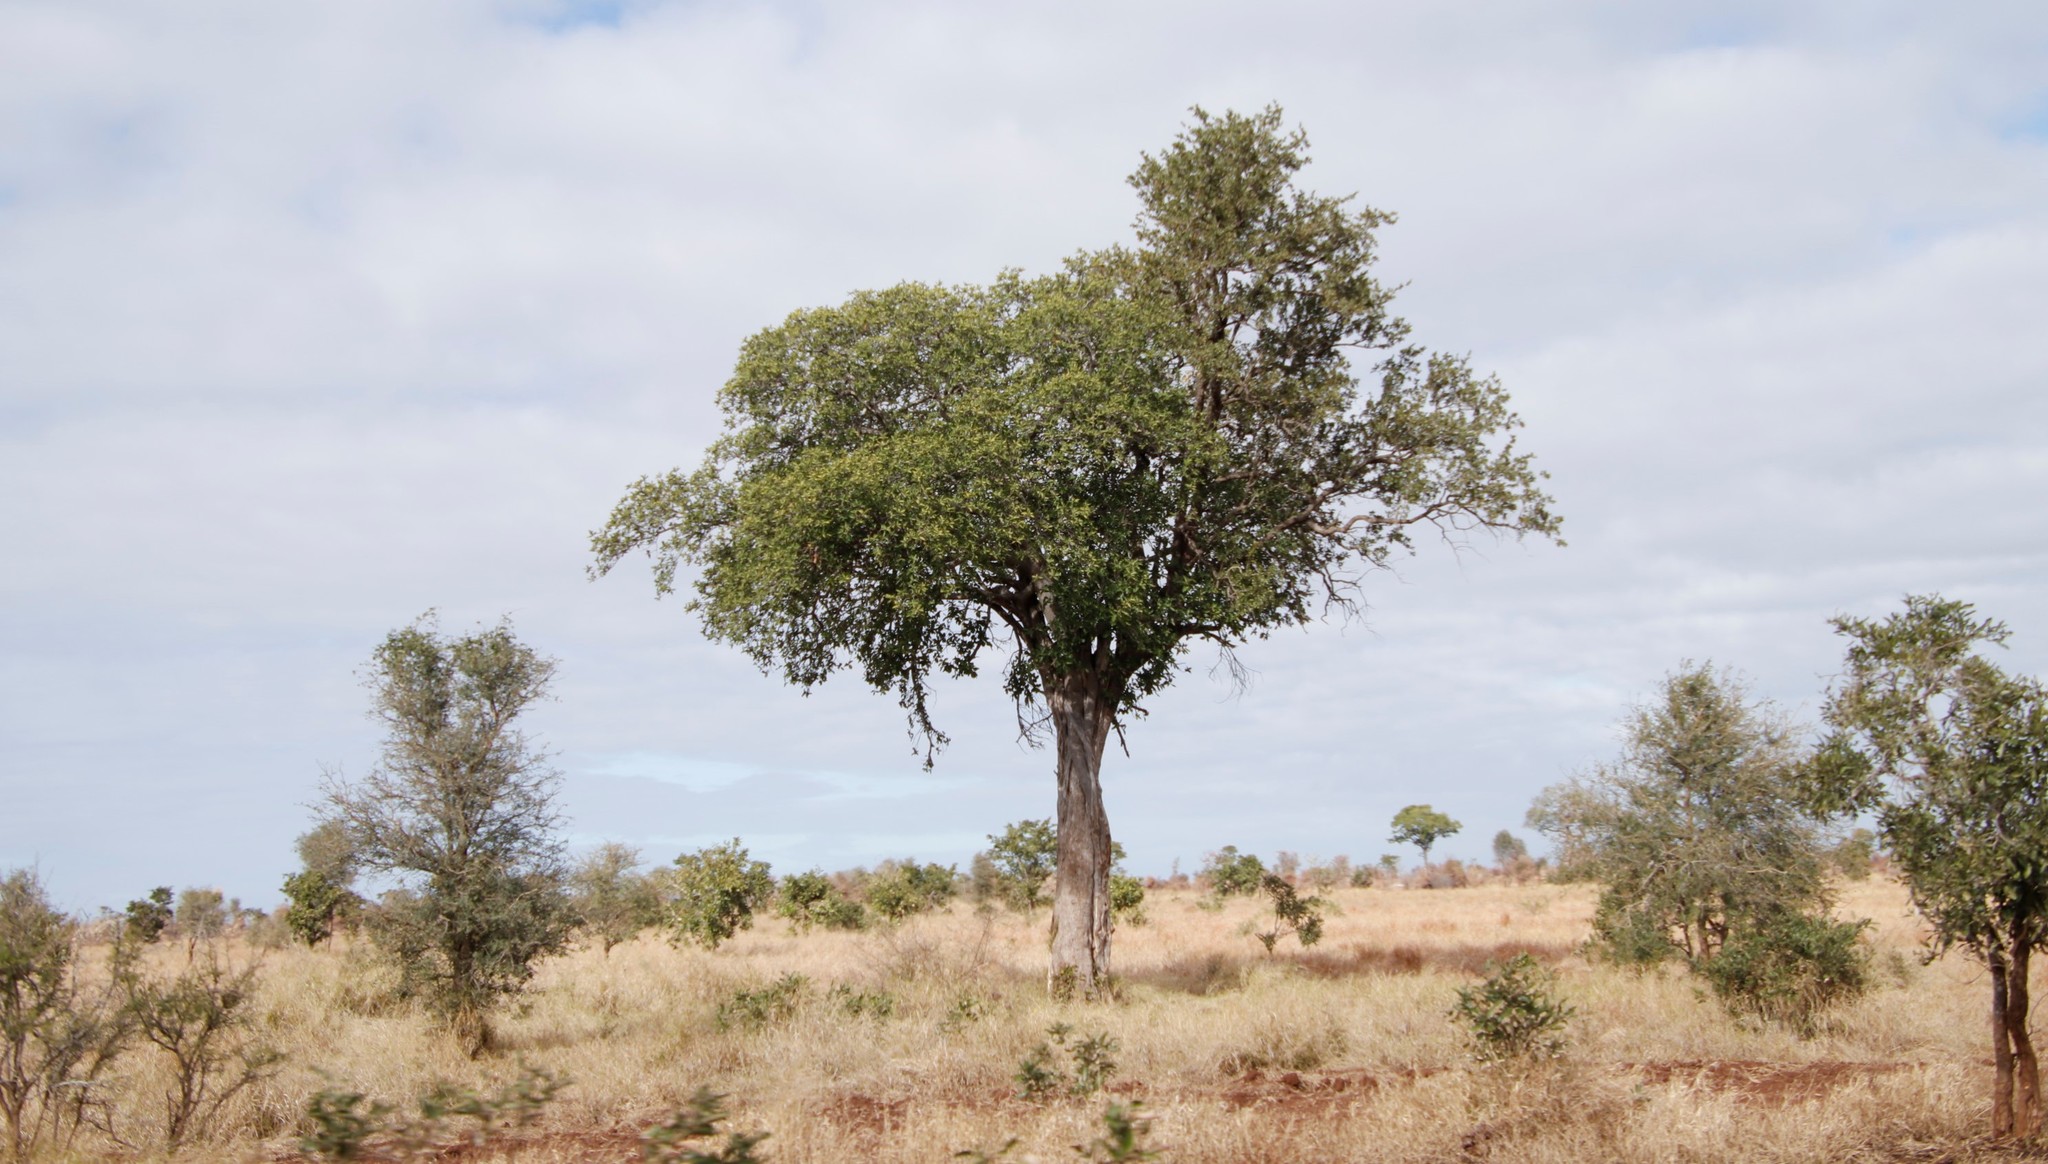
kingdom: Plantae
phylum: Tracheophyta
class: Magnoliopsida
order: Zygophyllales
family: Zygophyllaceae
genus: Balanites
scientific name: Balanites maughamii
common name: Torchwood
